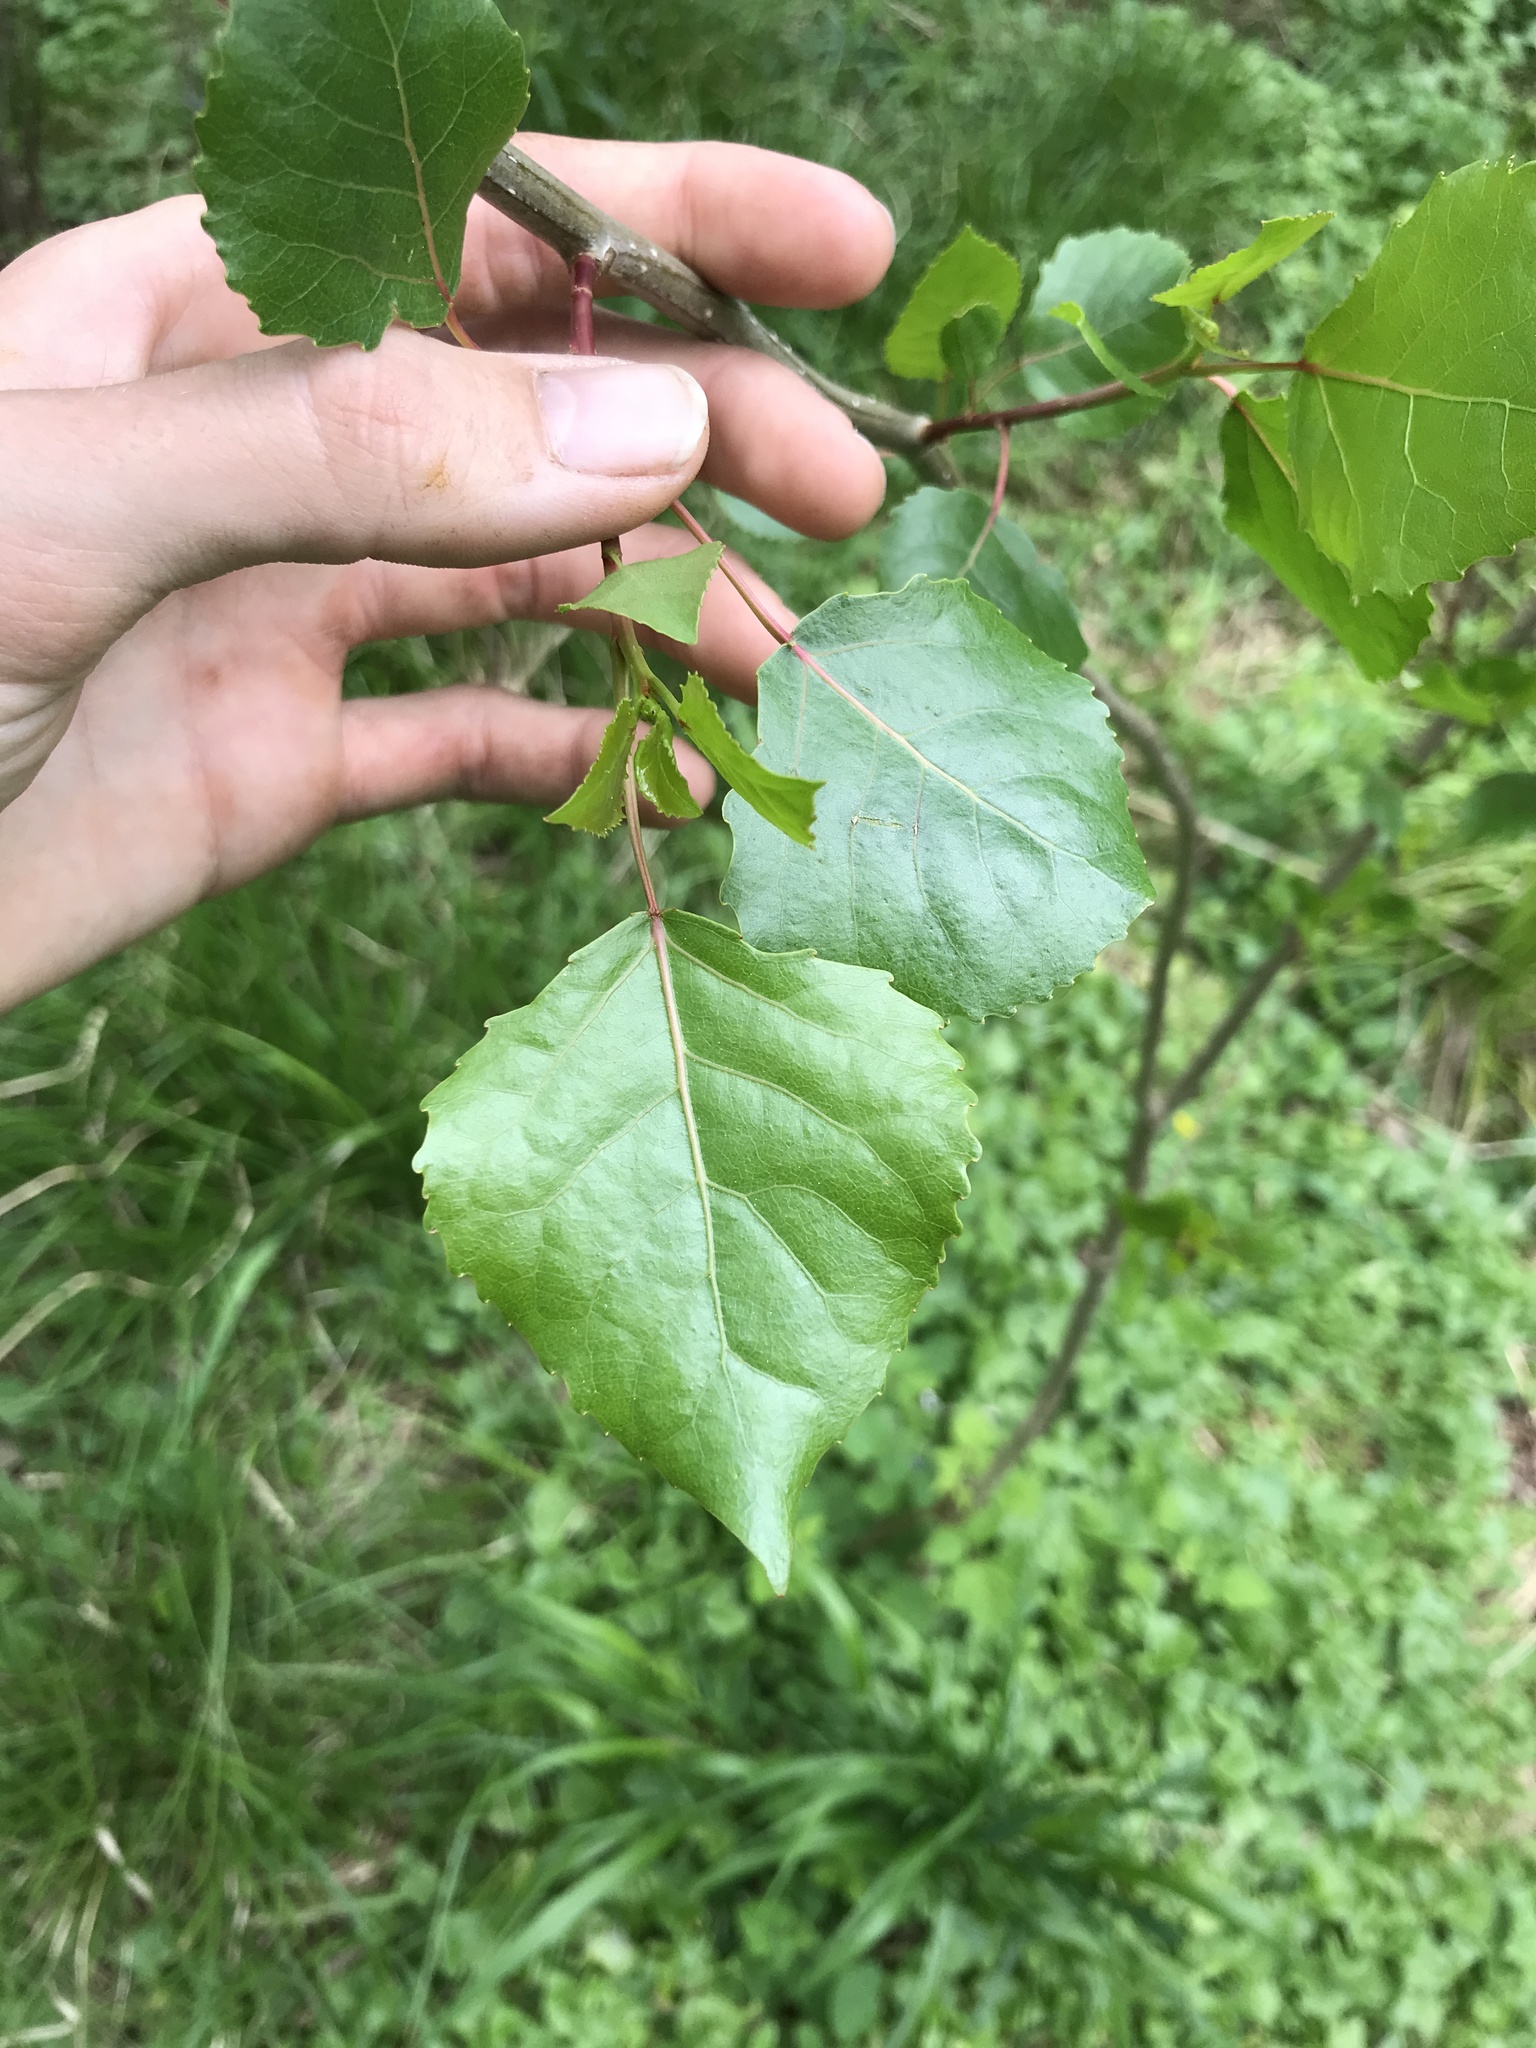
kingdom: Plantae
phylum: Tracheophyta
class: Magnoliopsida
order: Malpighiales
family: Salicaceae
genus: Populus
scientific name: Populus deltoides
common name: Eastern cottonwood
